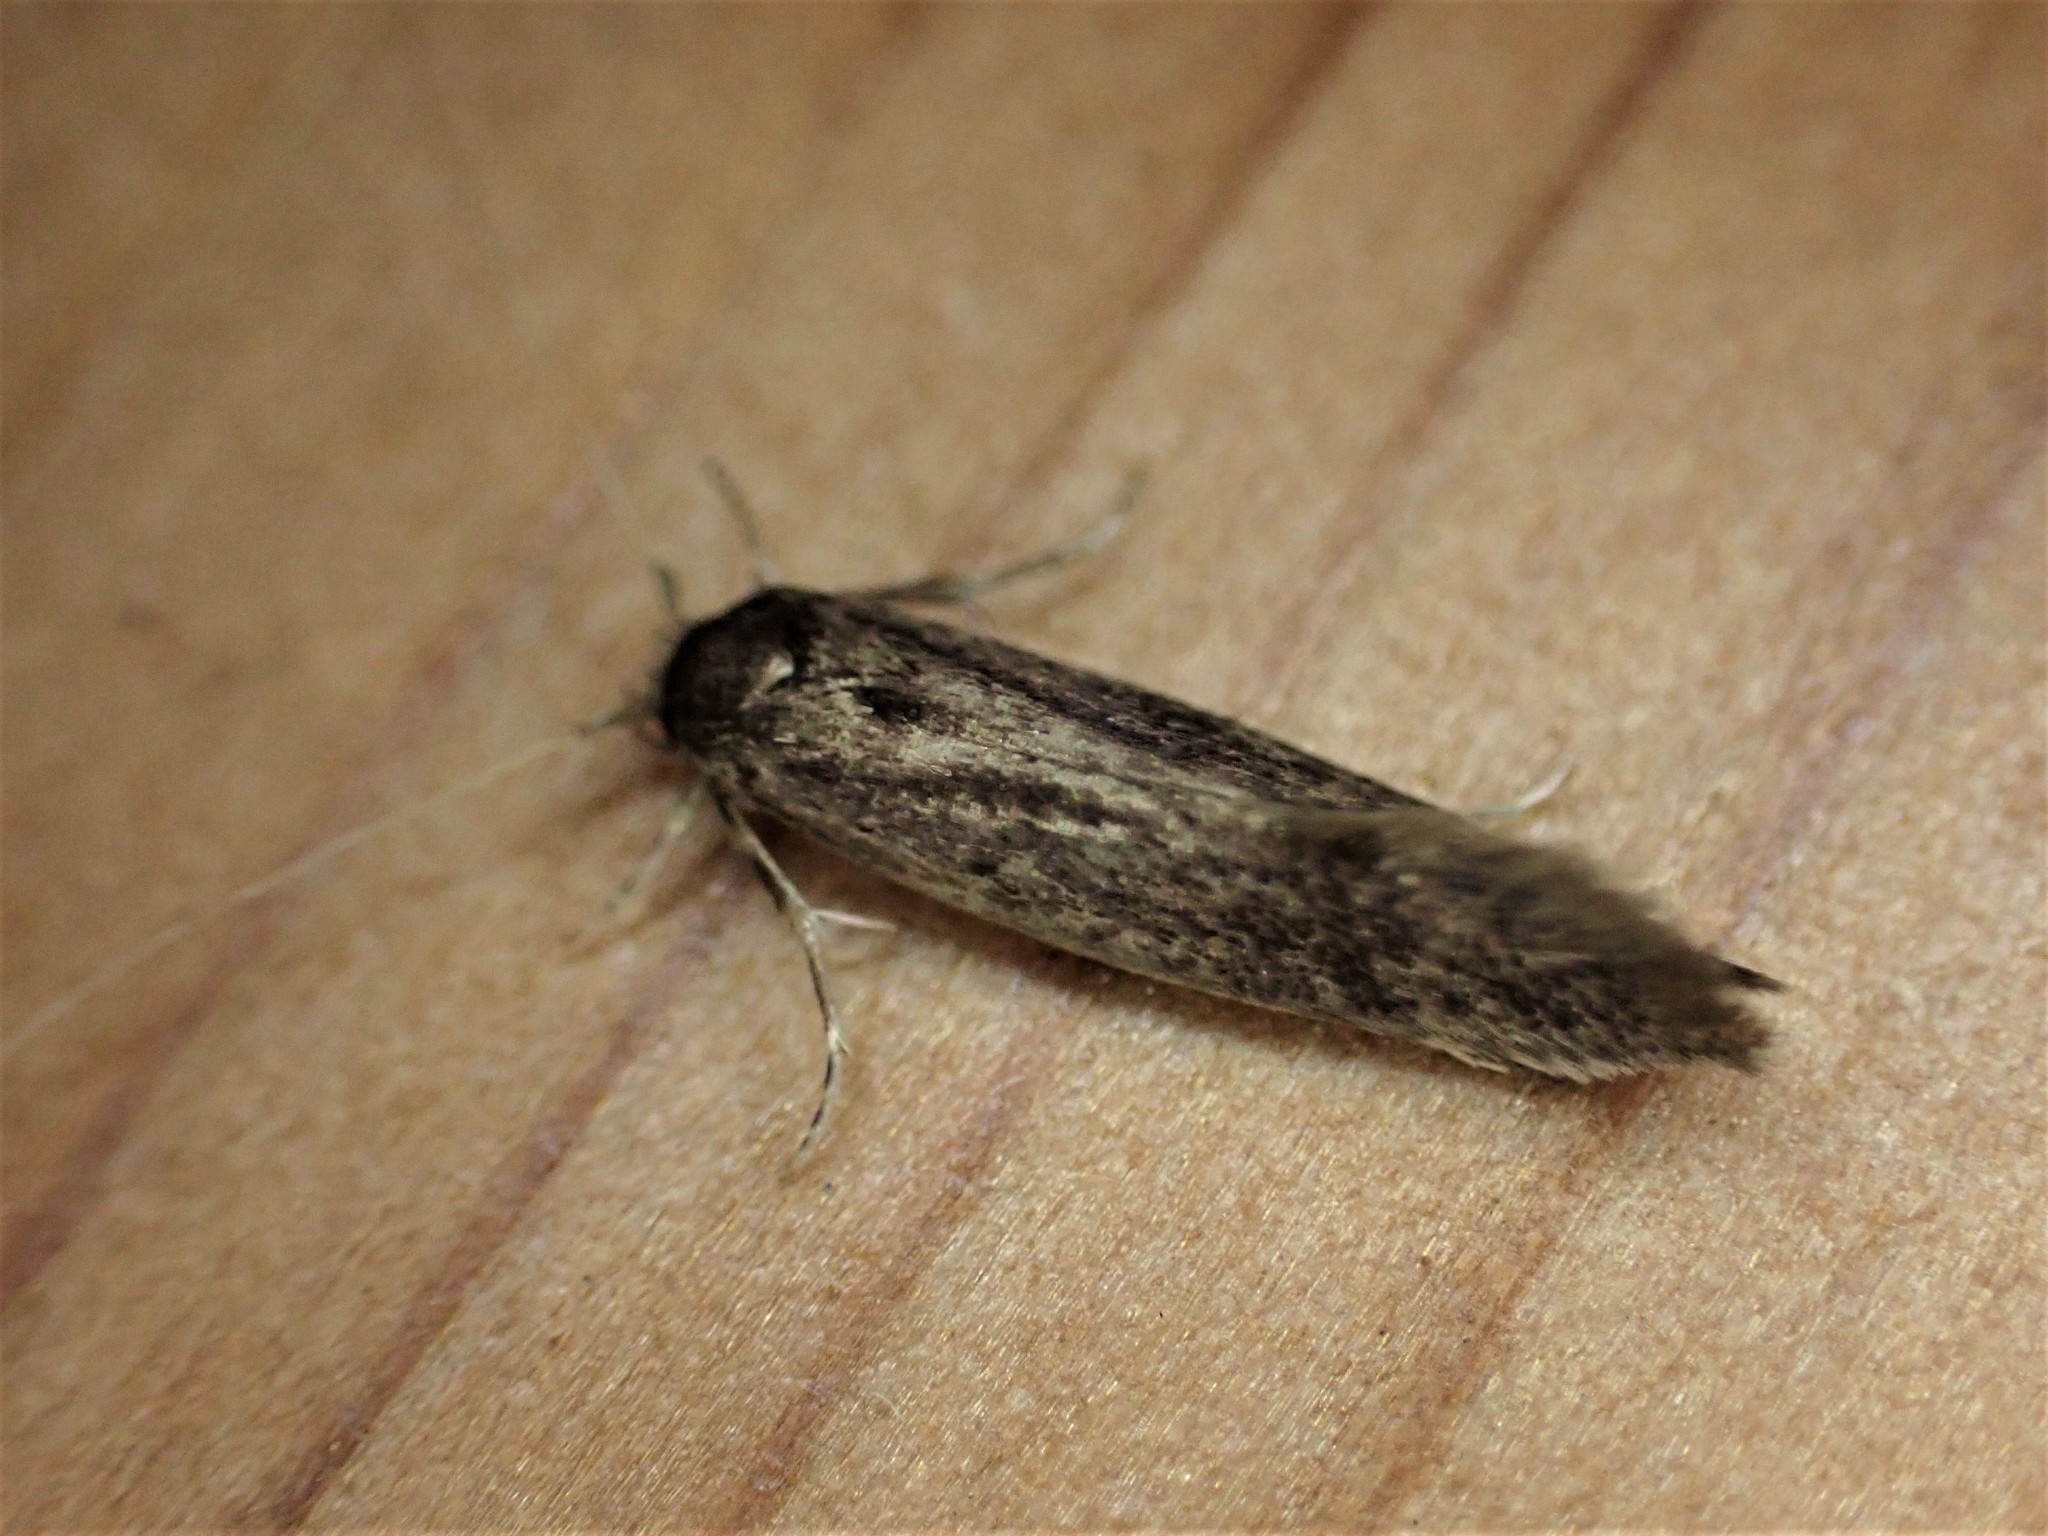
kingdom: Animalia
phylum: Arthropoda
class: Insecta
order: Lepidoptera
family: Tineidae
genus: Opogona
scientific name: Opogona omoscopa
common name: Moth
